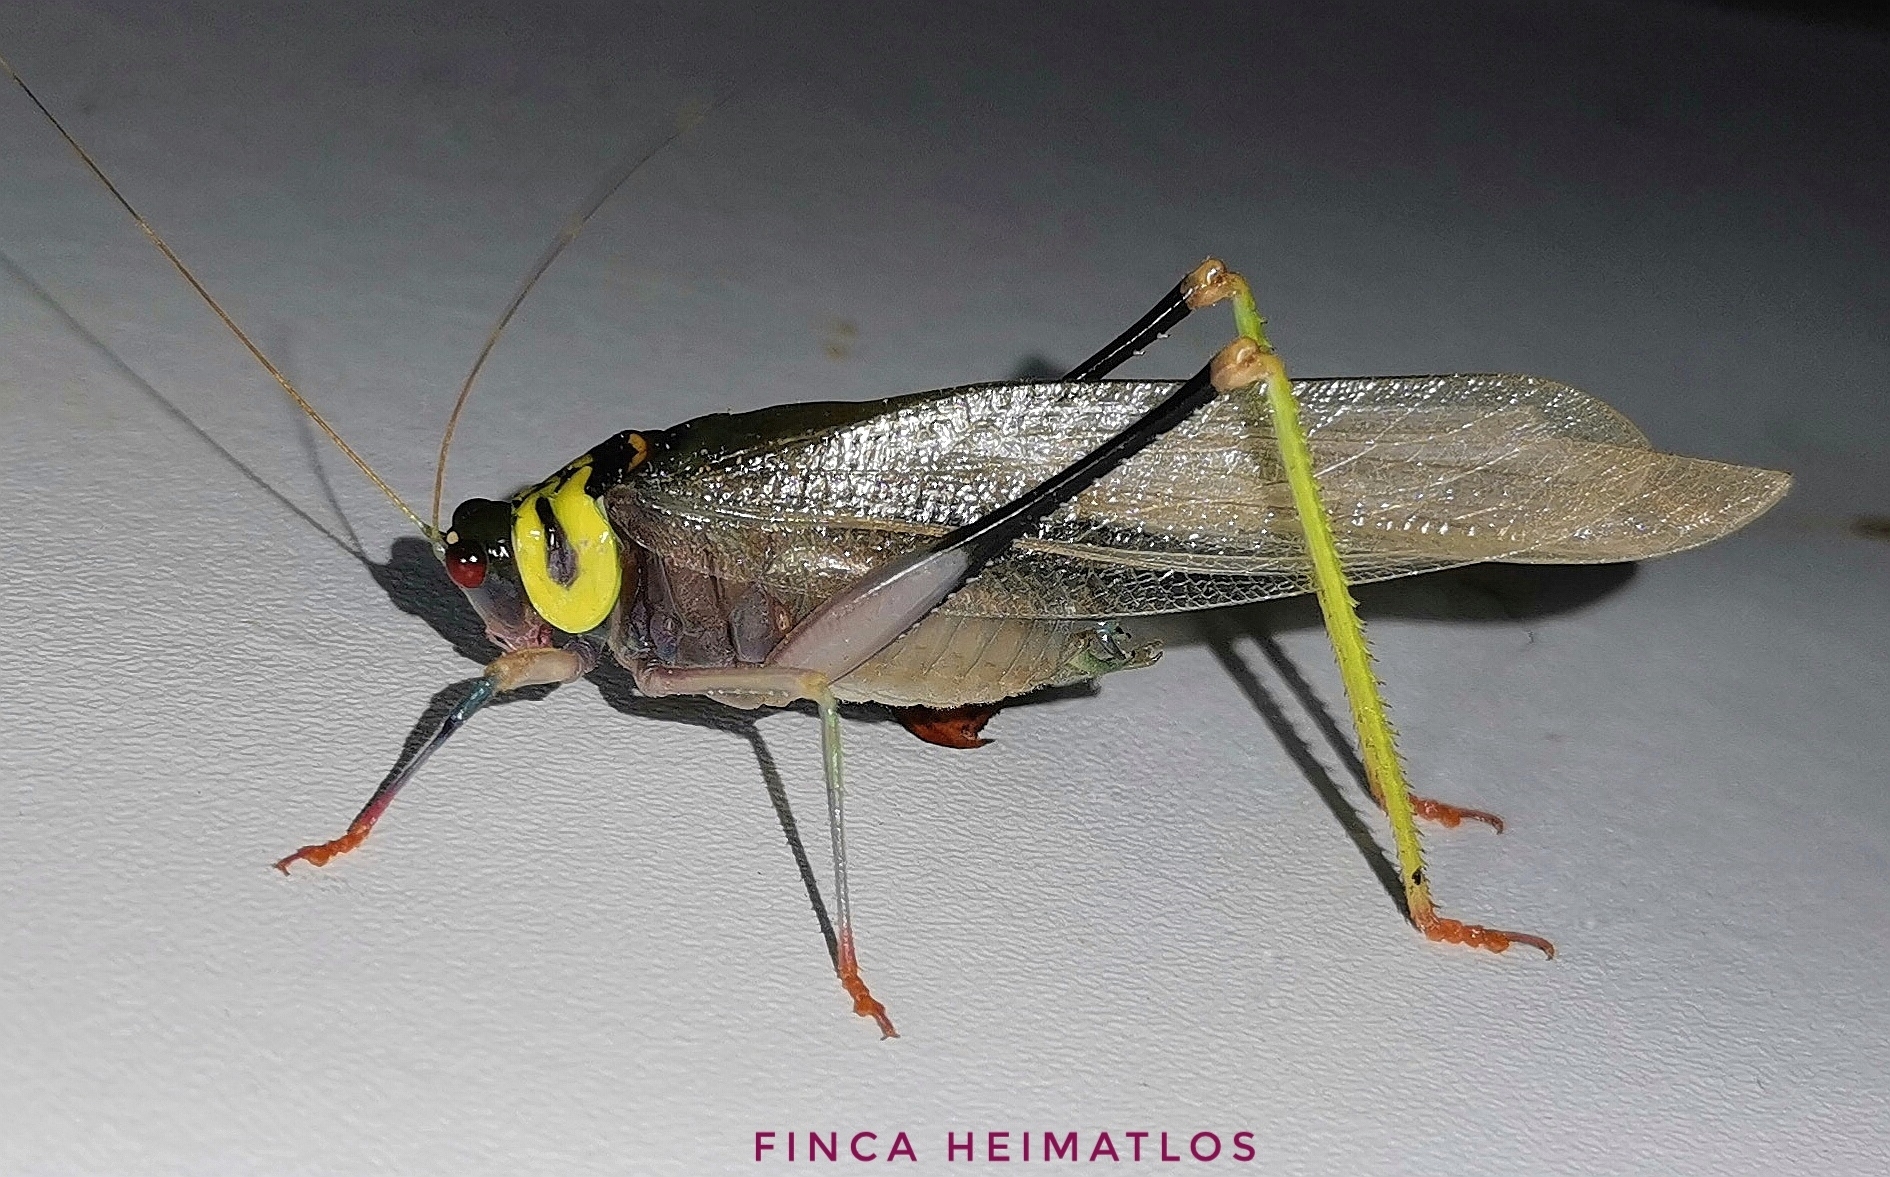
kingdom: Animalia
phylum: Arthropoda
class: Insecta
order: Orthoptera
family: Tettigoniidae
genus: Euceraia
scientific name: Euceraia insignis
